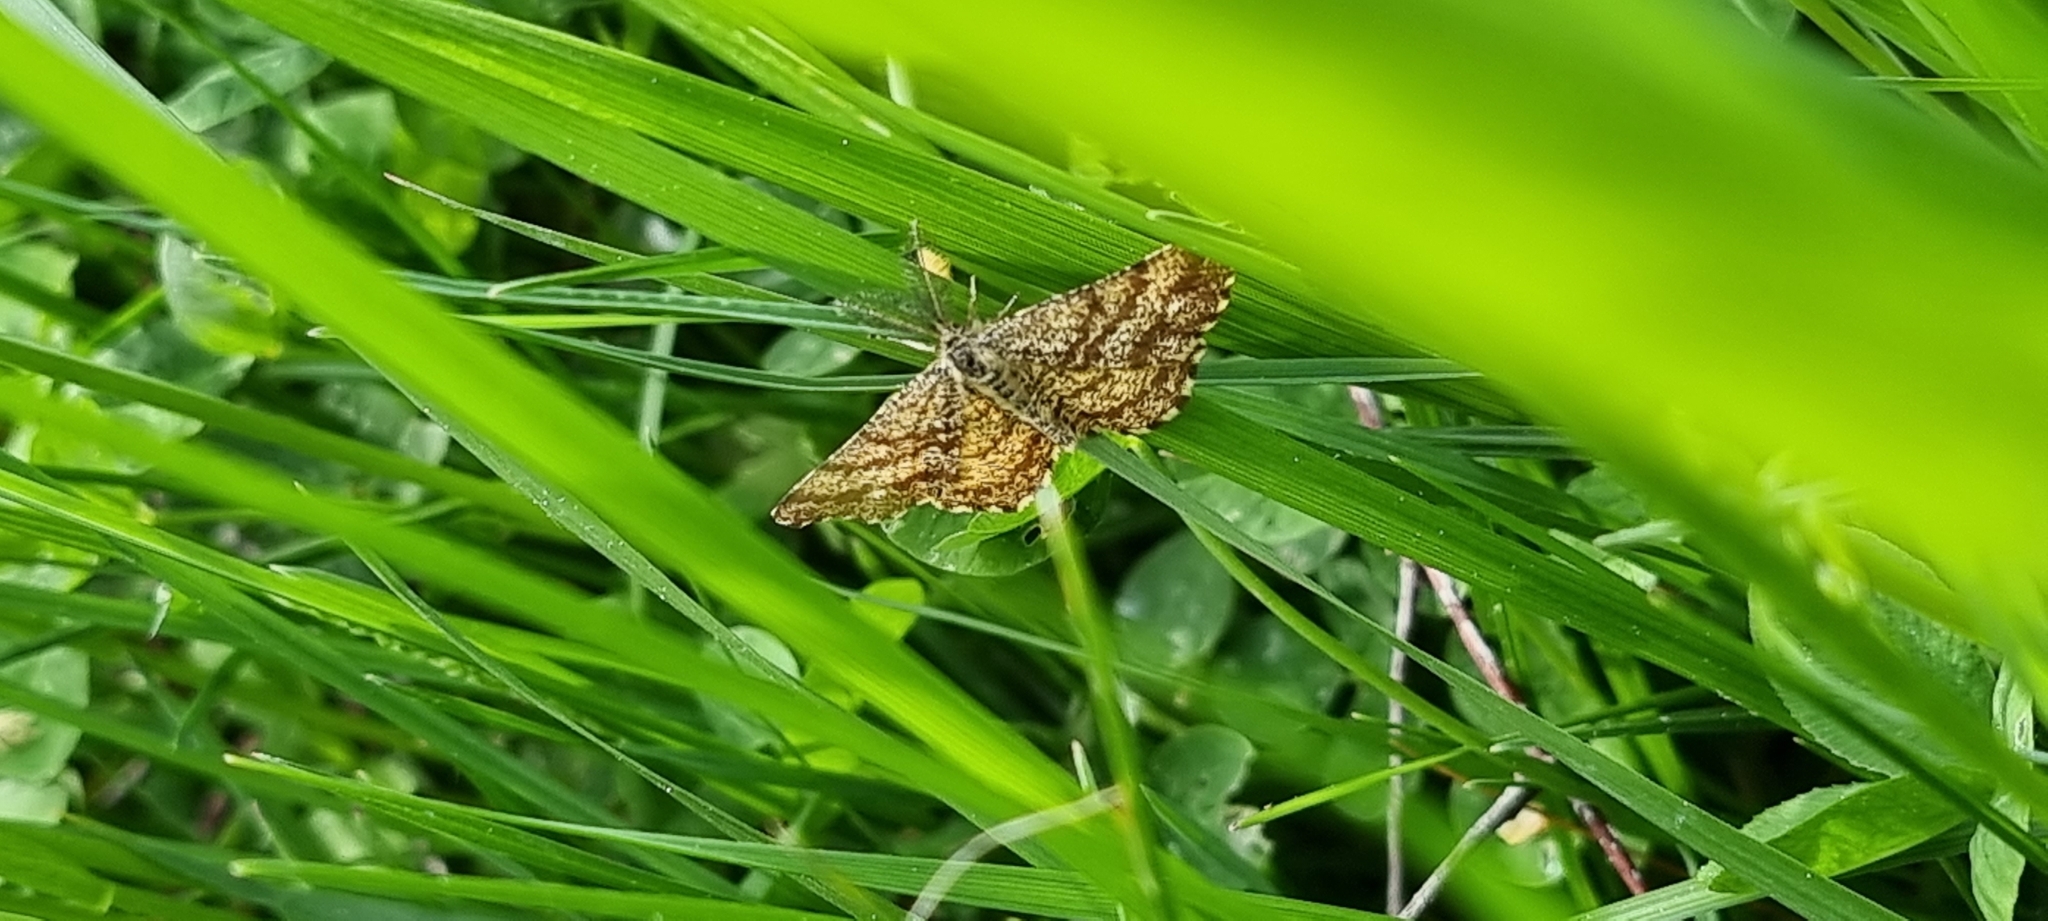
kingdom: Animalia
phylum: Arthropoda
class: Insecta
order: Lepidoptera
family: Geometridae
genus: Ematurga
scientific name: Ematurga atomaria
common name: Common heath
